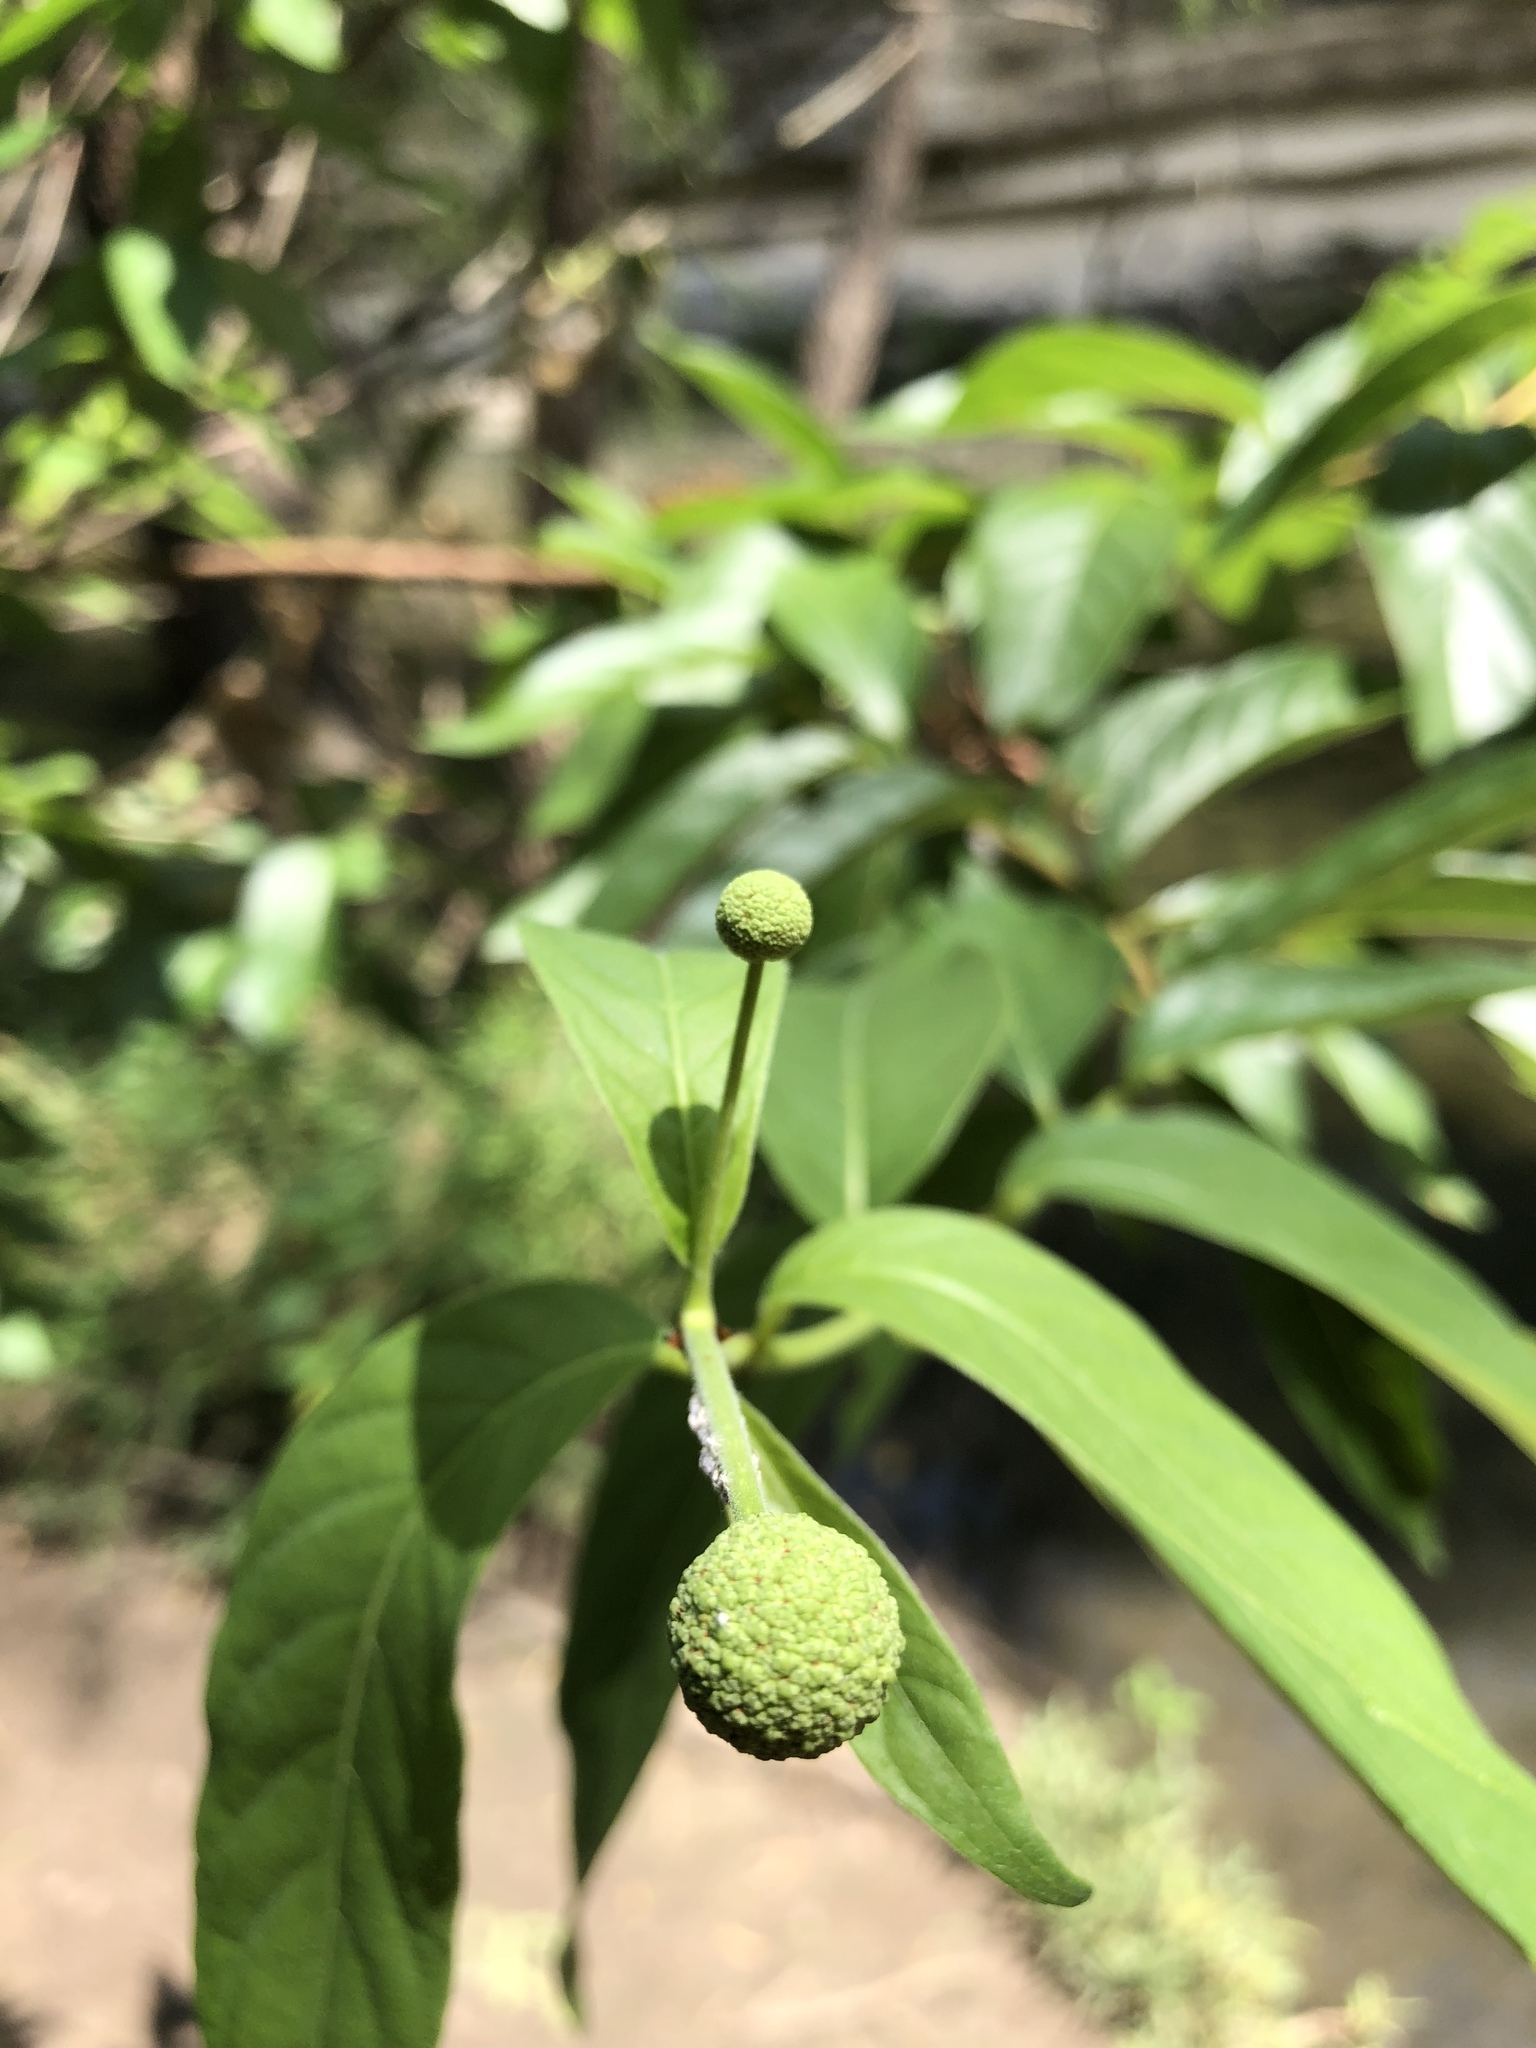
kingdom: Plantae
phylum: Tracheophyta
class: Magnoliopsida
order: Gentianales
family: Rubiaceae
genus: Cephalanthus
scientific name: Cephalanthus occidentalis
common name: Button-willow
